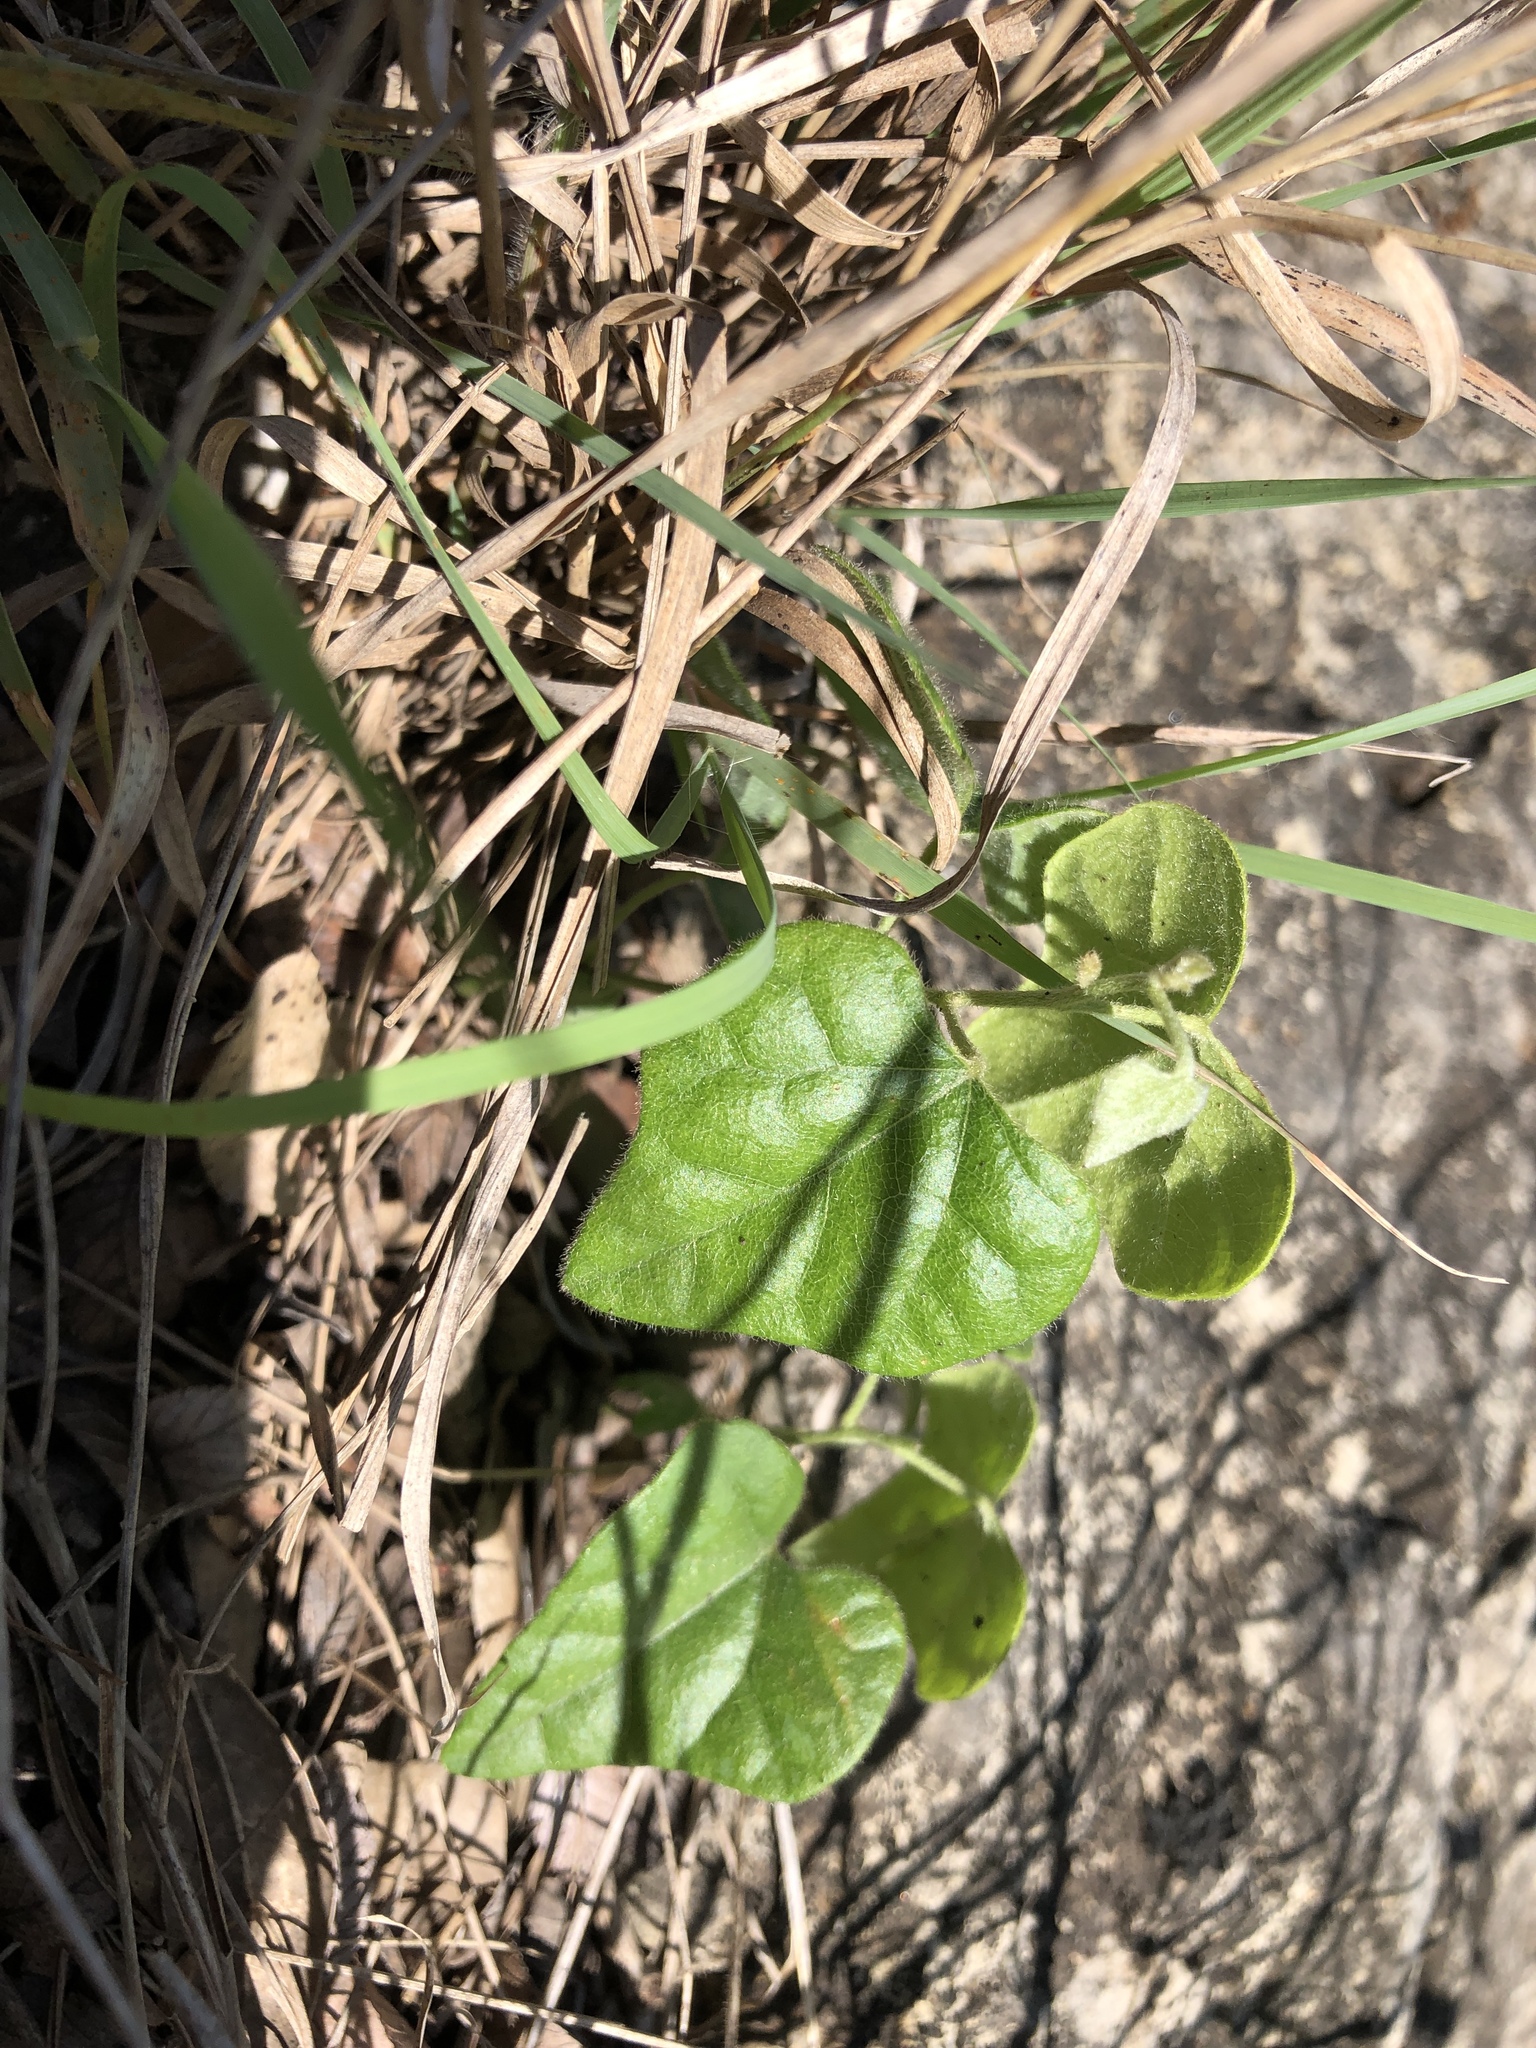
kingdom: Plantae
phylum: Tracheophyta
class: Magnoliopsida
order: Ranunculales
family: Menispermaceae
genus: Cocculus
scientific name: Cocculus carolinus
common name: Carolina moonseed
